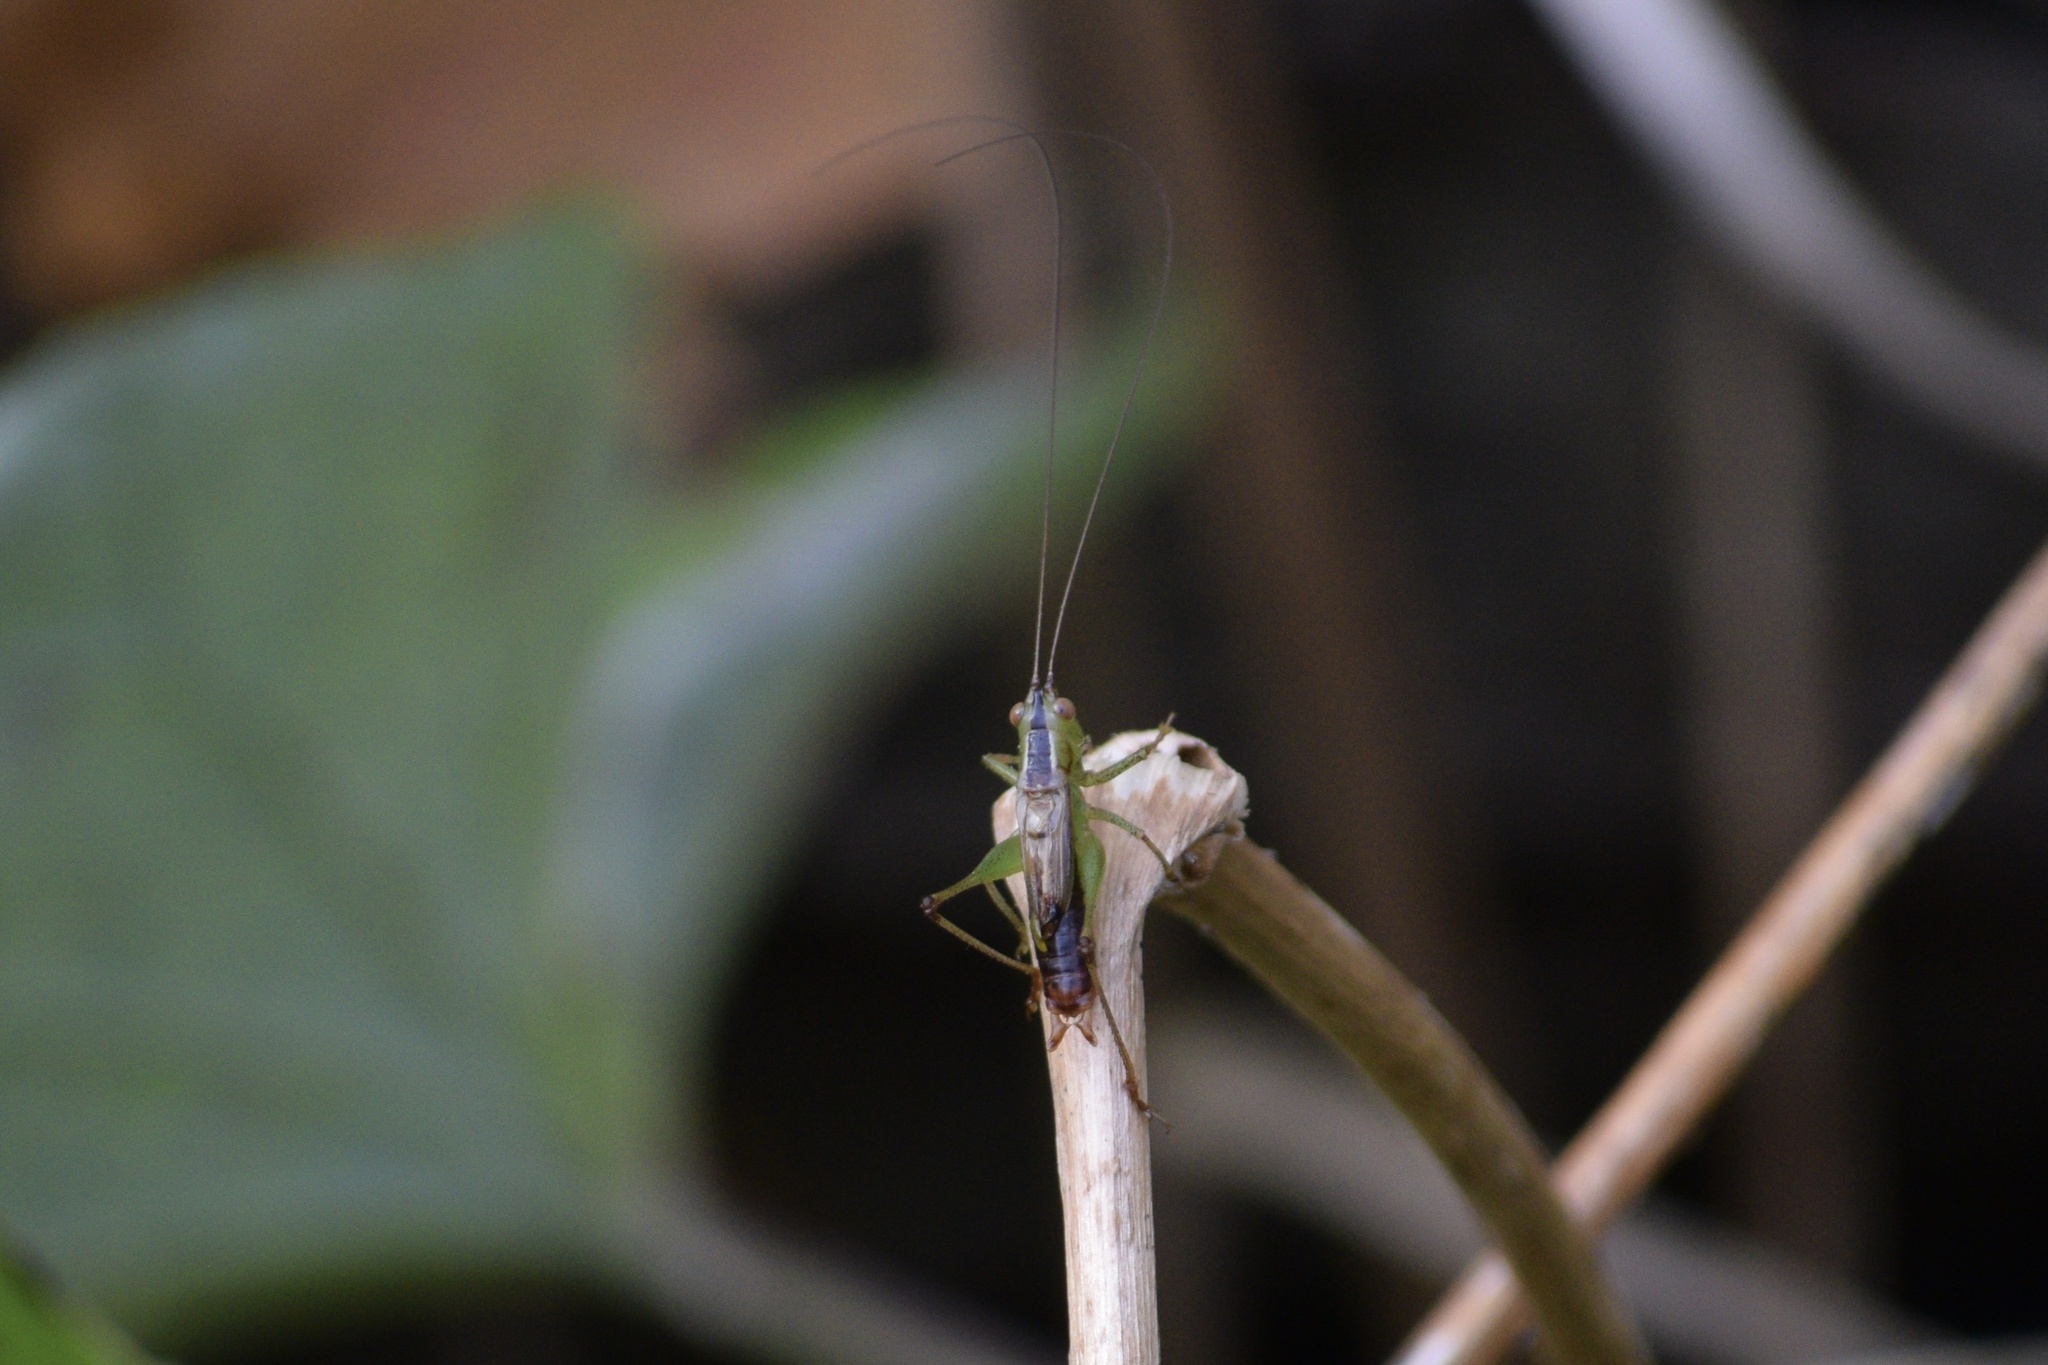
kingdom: Animalia
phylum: Arthropoda
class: Insecta
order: Orthoptera
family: Tettigoniidae
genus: Conocephalus
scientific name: Conocephalus brevipennis
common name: Short-winged meadow katydid
